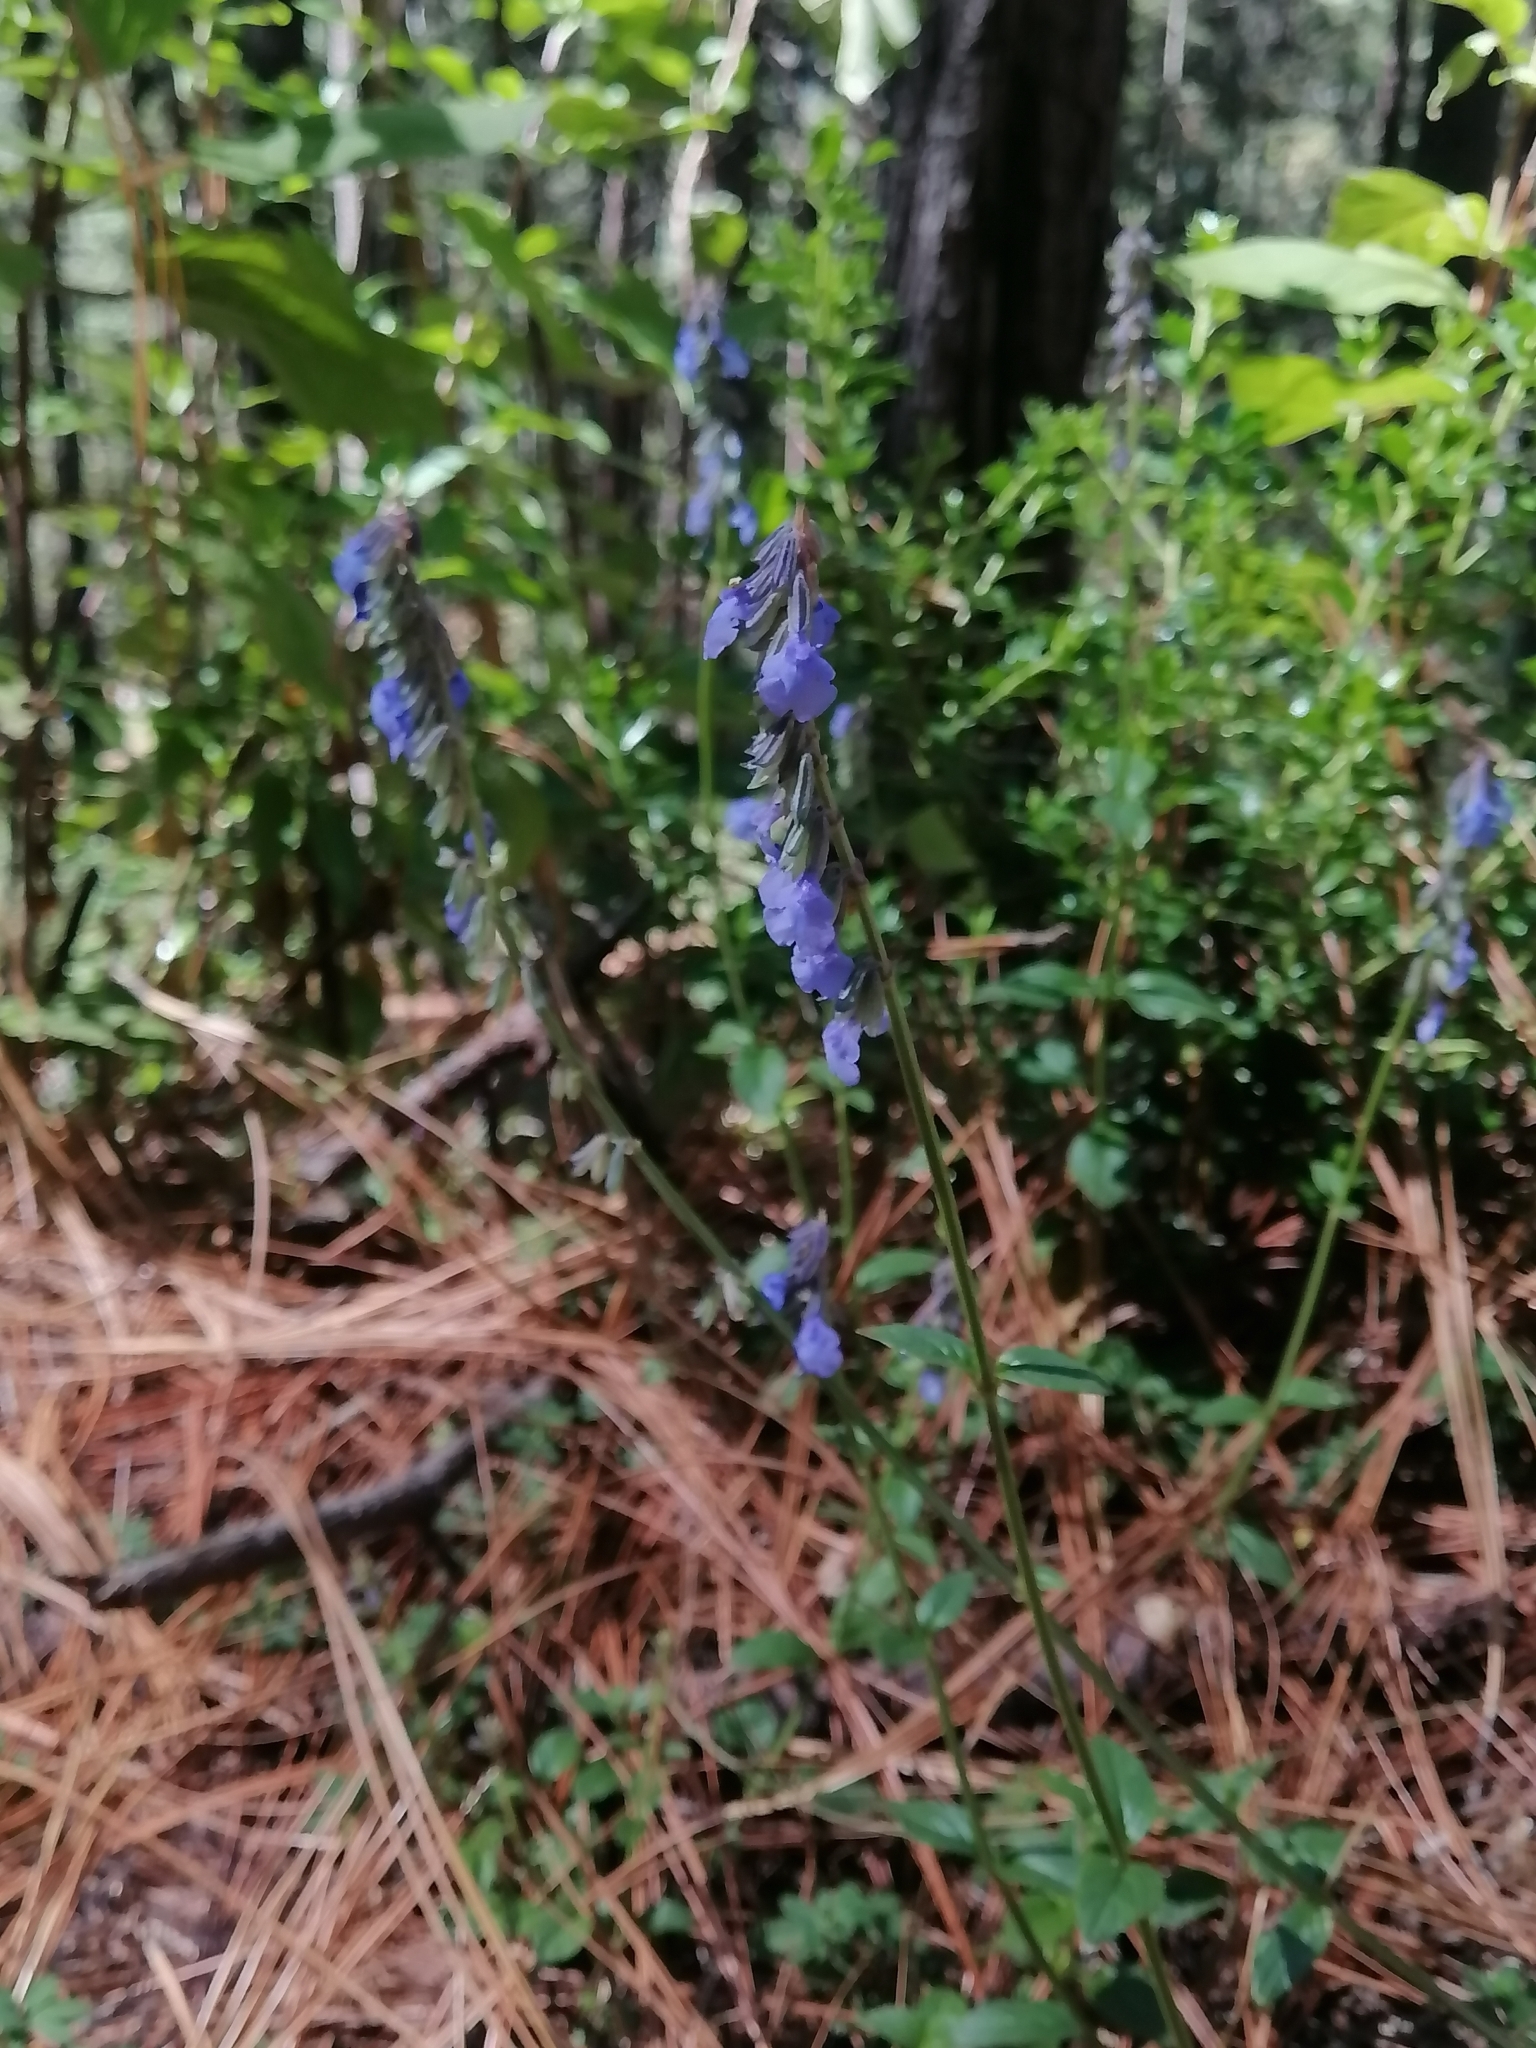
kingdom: Plantae
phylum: Tracheophyta
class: Magnoliopsida
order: Lamiales
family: Lamiaceae
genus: Salvia
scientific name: Salvia helianthemifolia
